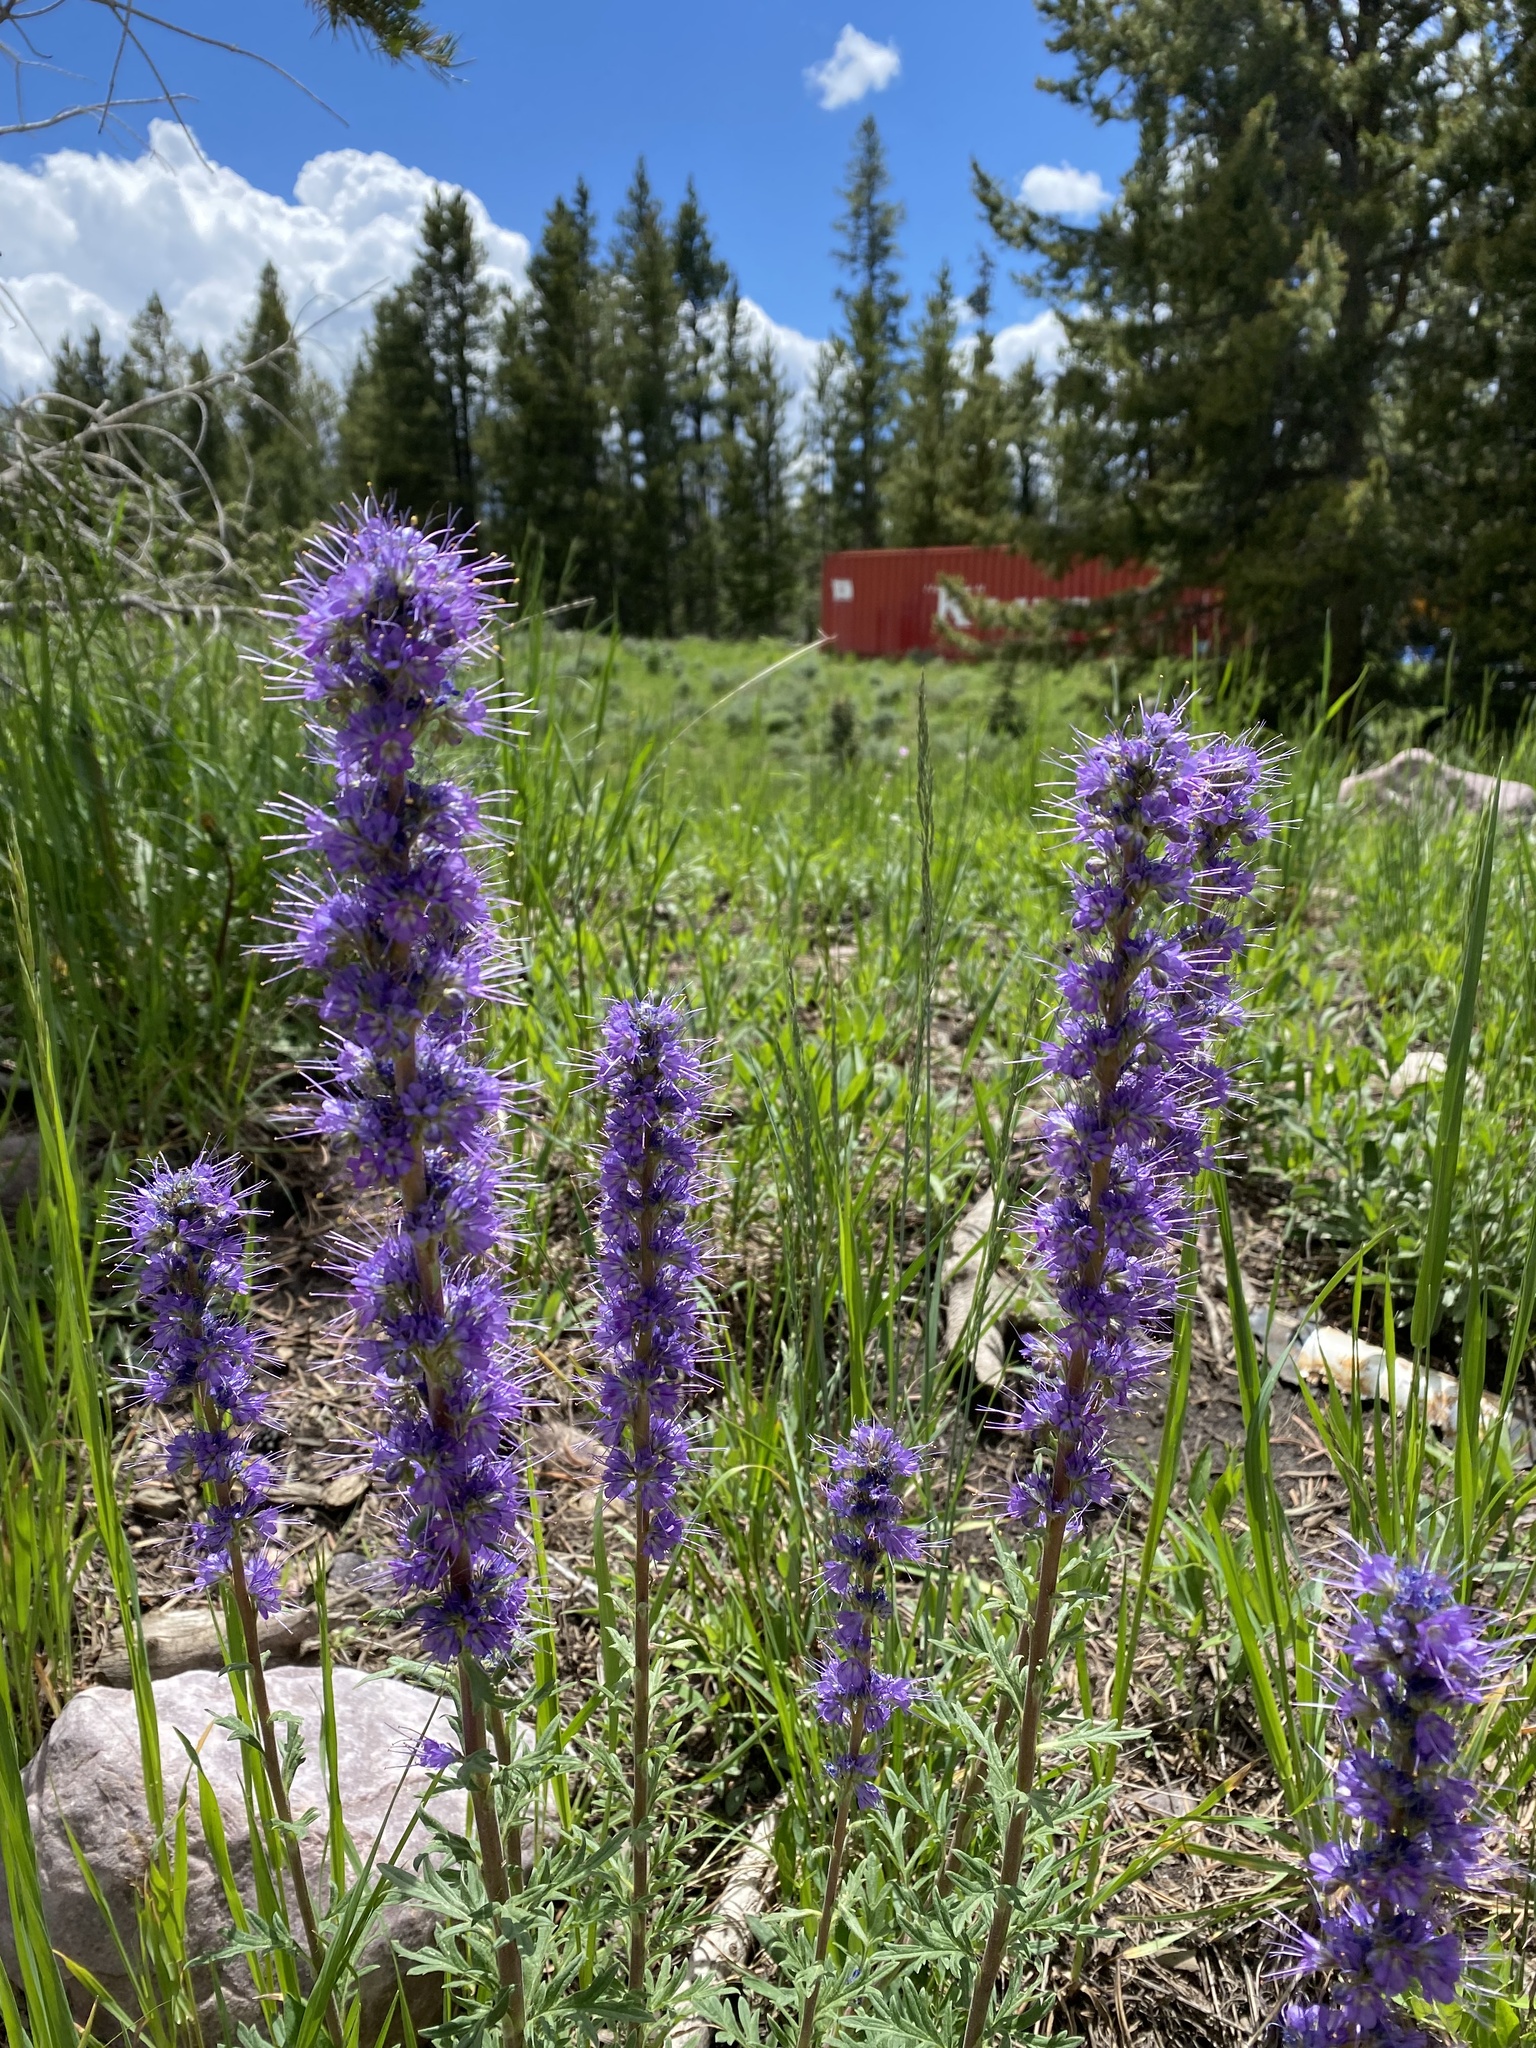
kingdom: Plantae
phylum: Tracheophyta
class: Magnoliopsida
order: Boraginales
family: Hydrophyllaceae
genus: Phacelia
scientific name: Phacelia sericea
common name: Silky phacelia
